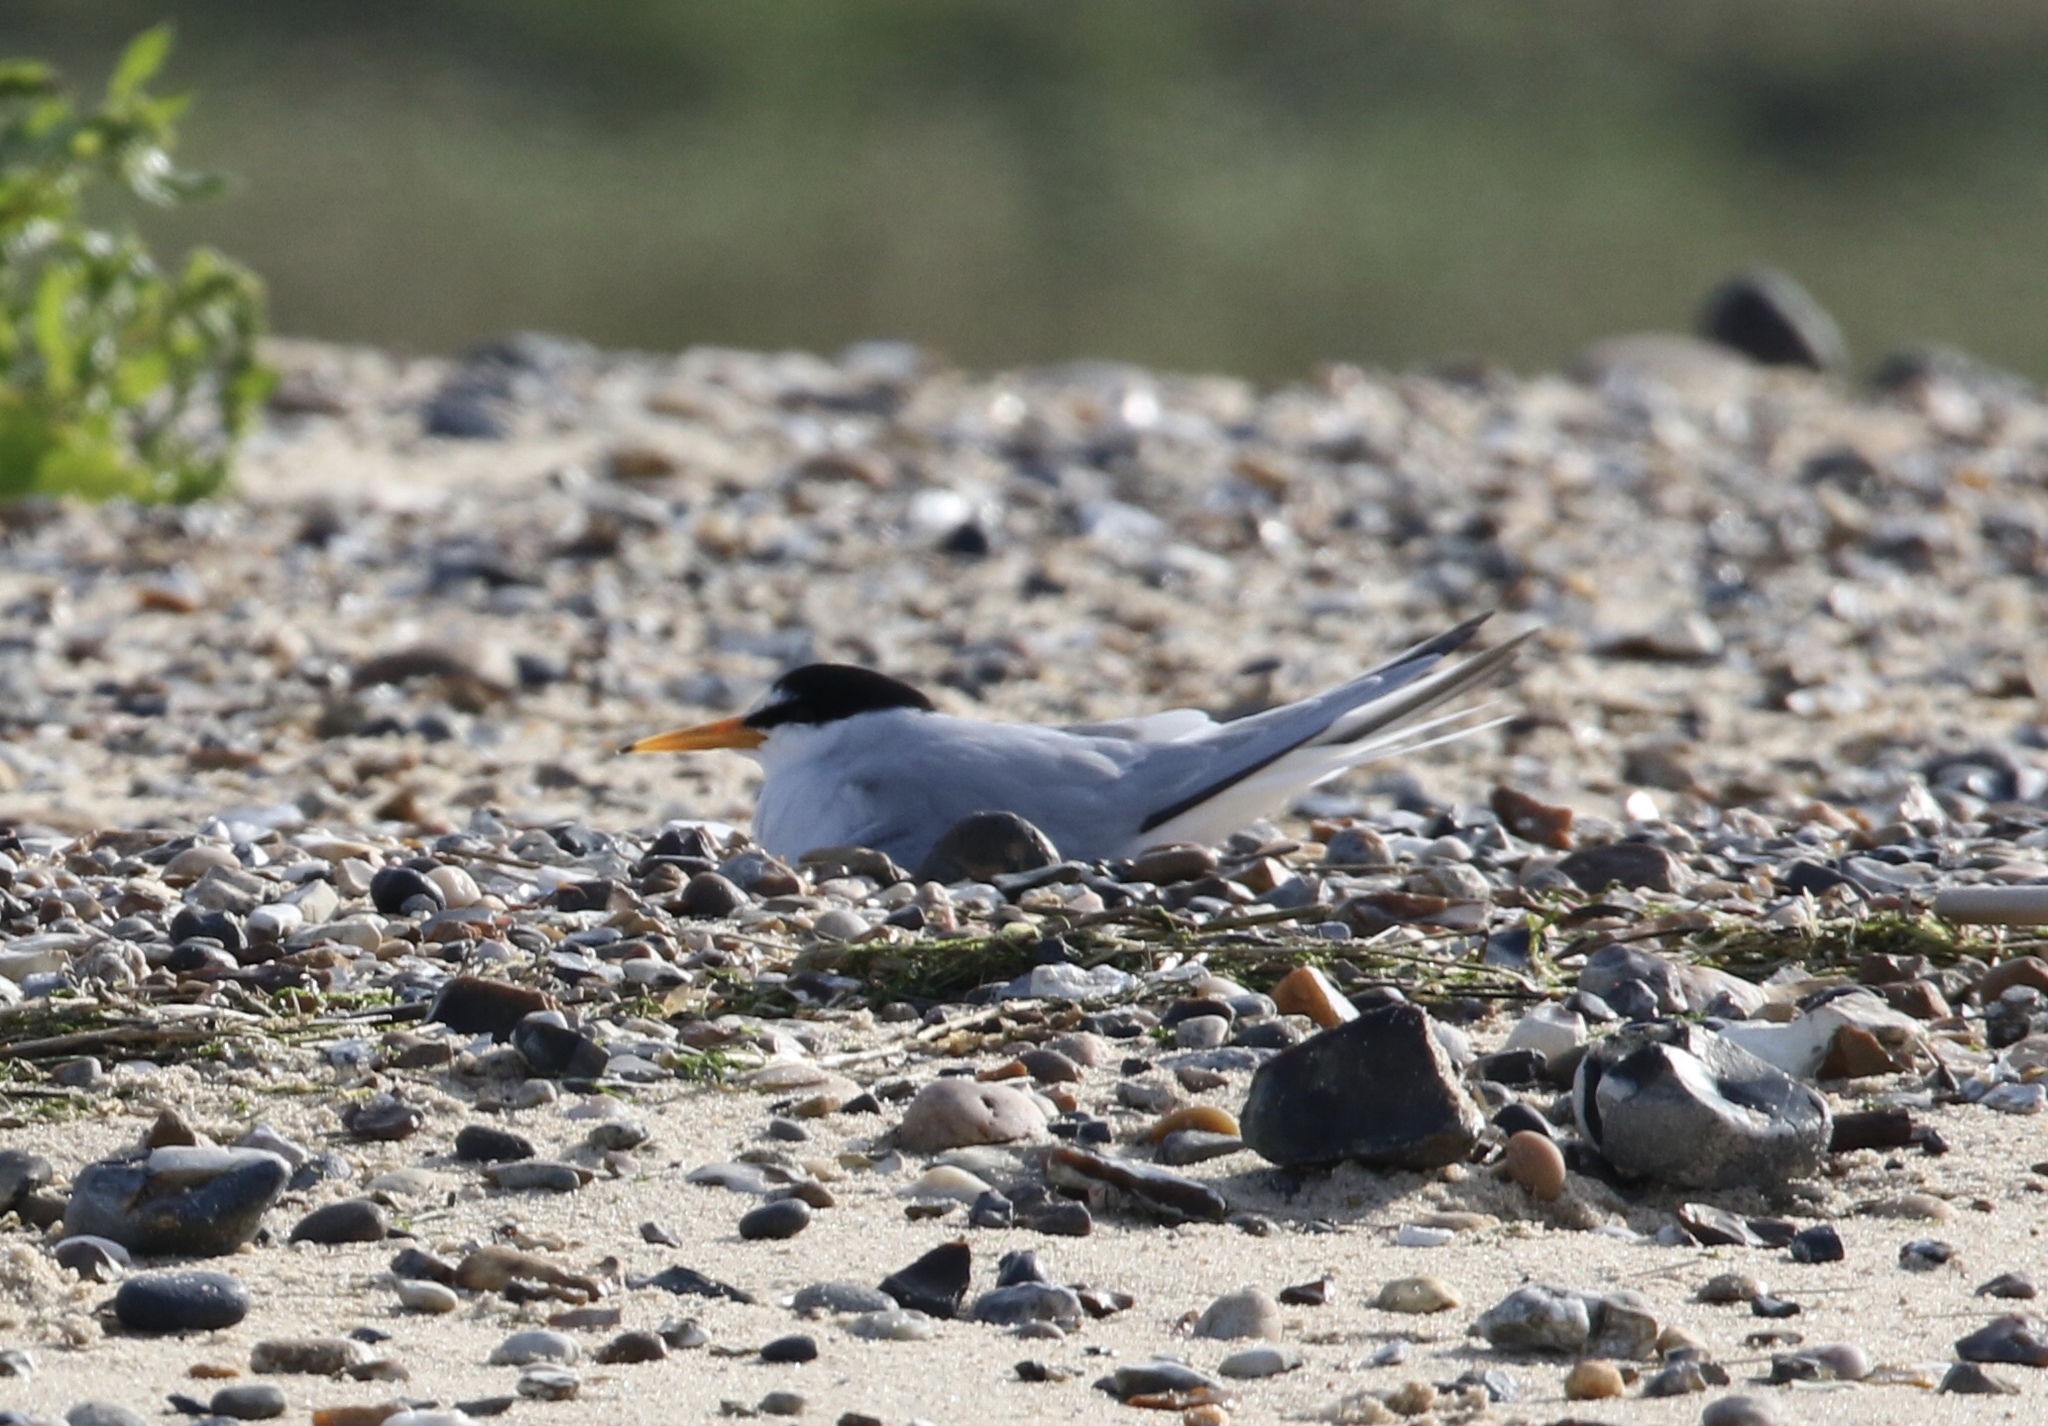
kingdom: Animalia
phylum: Chordata
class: Aves
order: Charadriiformes
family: Laridae
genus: Sternula
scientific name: Sternula albifrons
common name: Little tern
